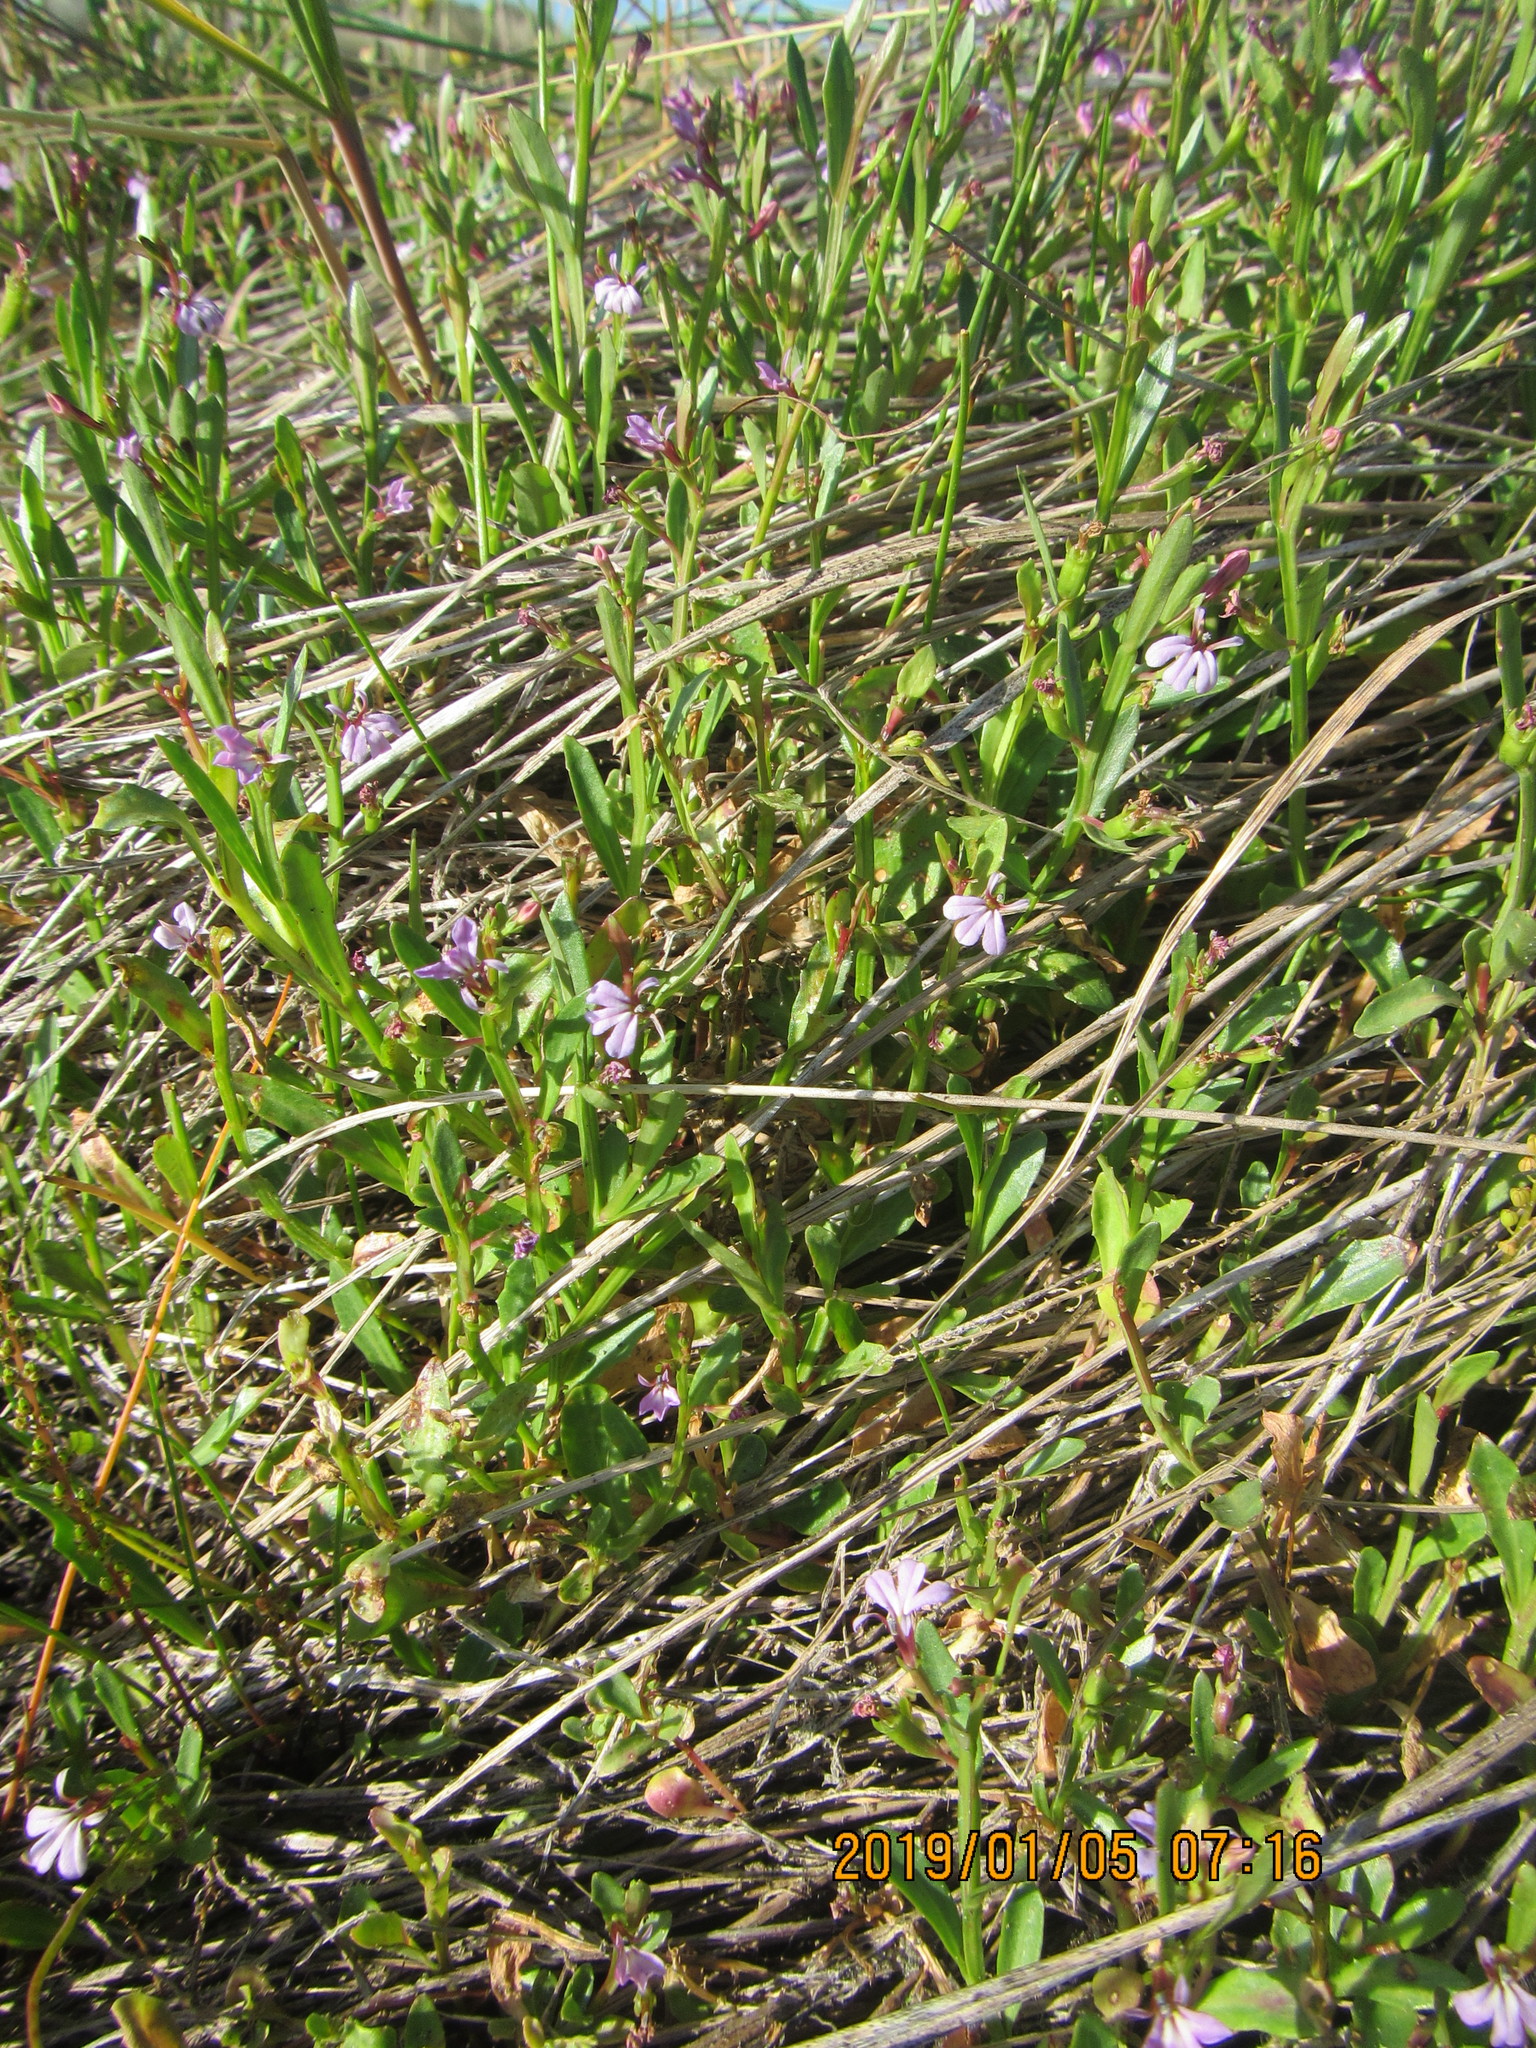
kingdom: Plantae
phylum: Tracheophyta
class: Magnoliopsida
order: Asterales
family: Campanulaceae
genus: Lobelia
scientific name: Lobelia anceps
